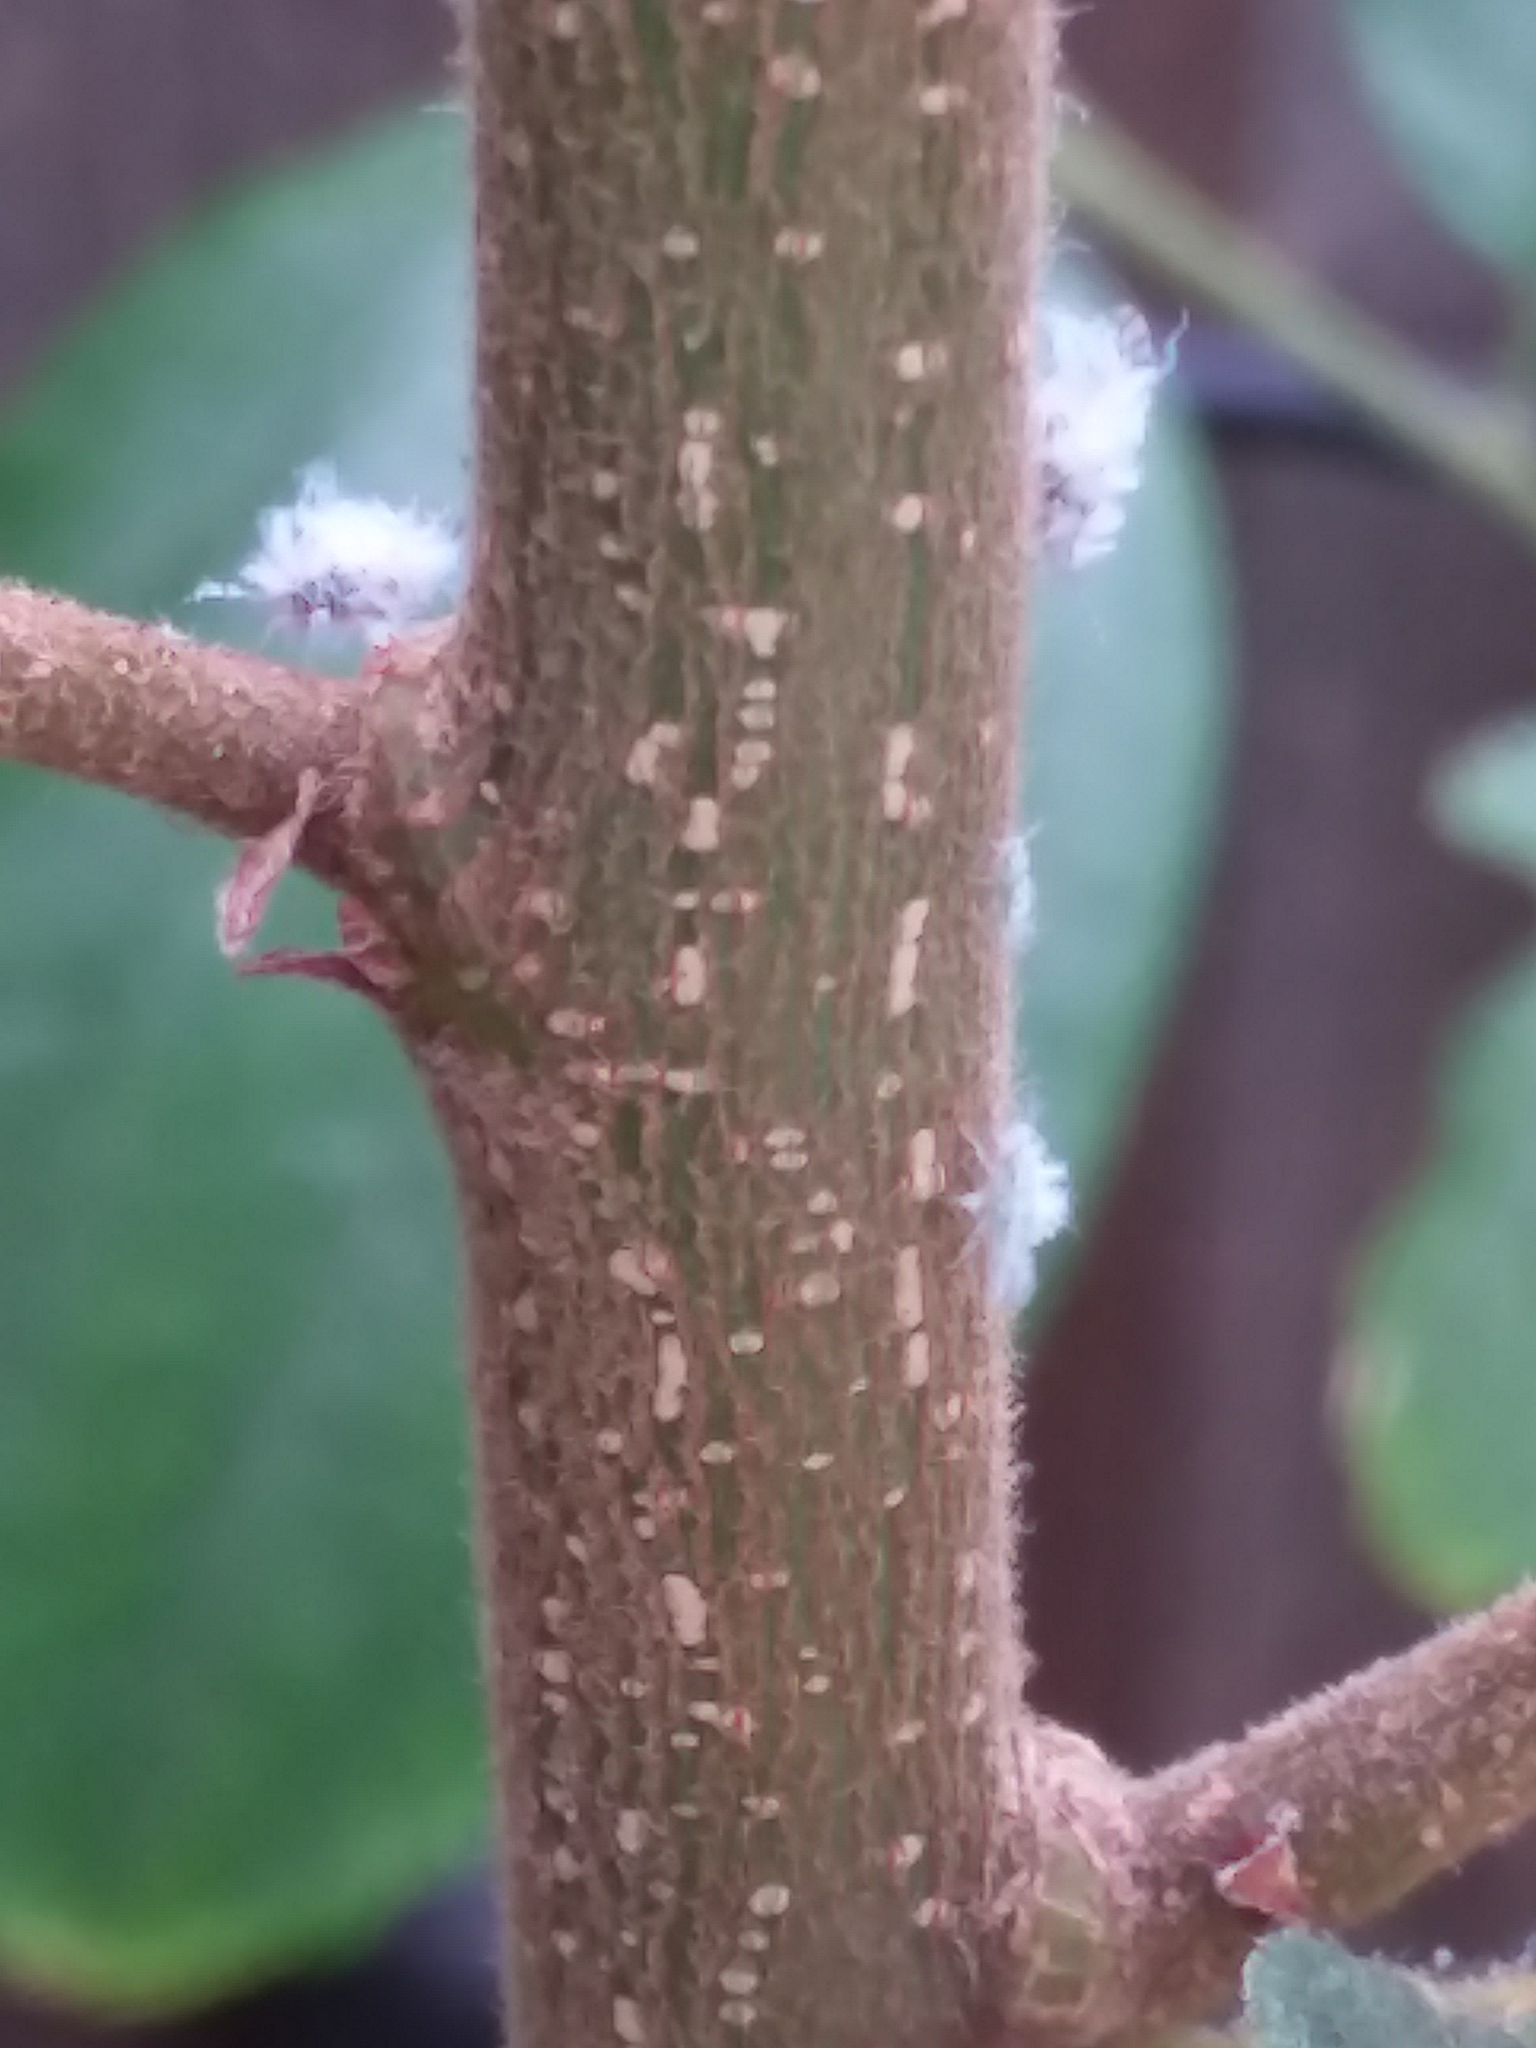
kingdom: Animalia
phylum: Arthropoda
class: Insecta
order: Hemiptera
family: Aphididae
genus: Shivaphis
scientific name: Shivaphis celti
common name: Asian wooly hackberry aphid
